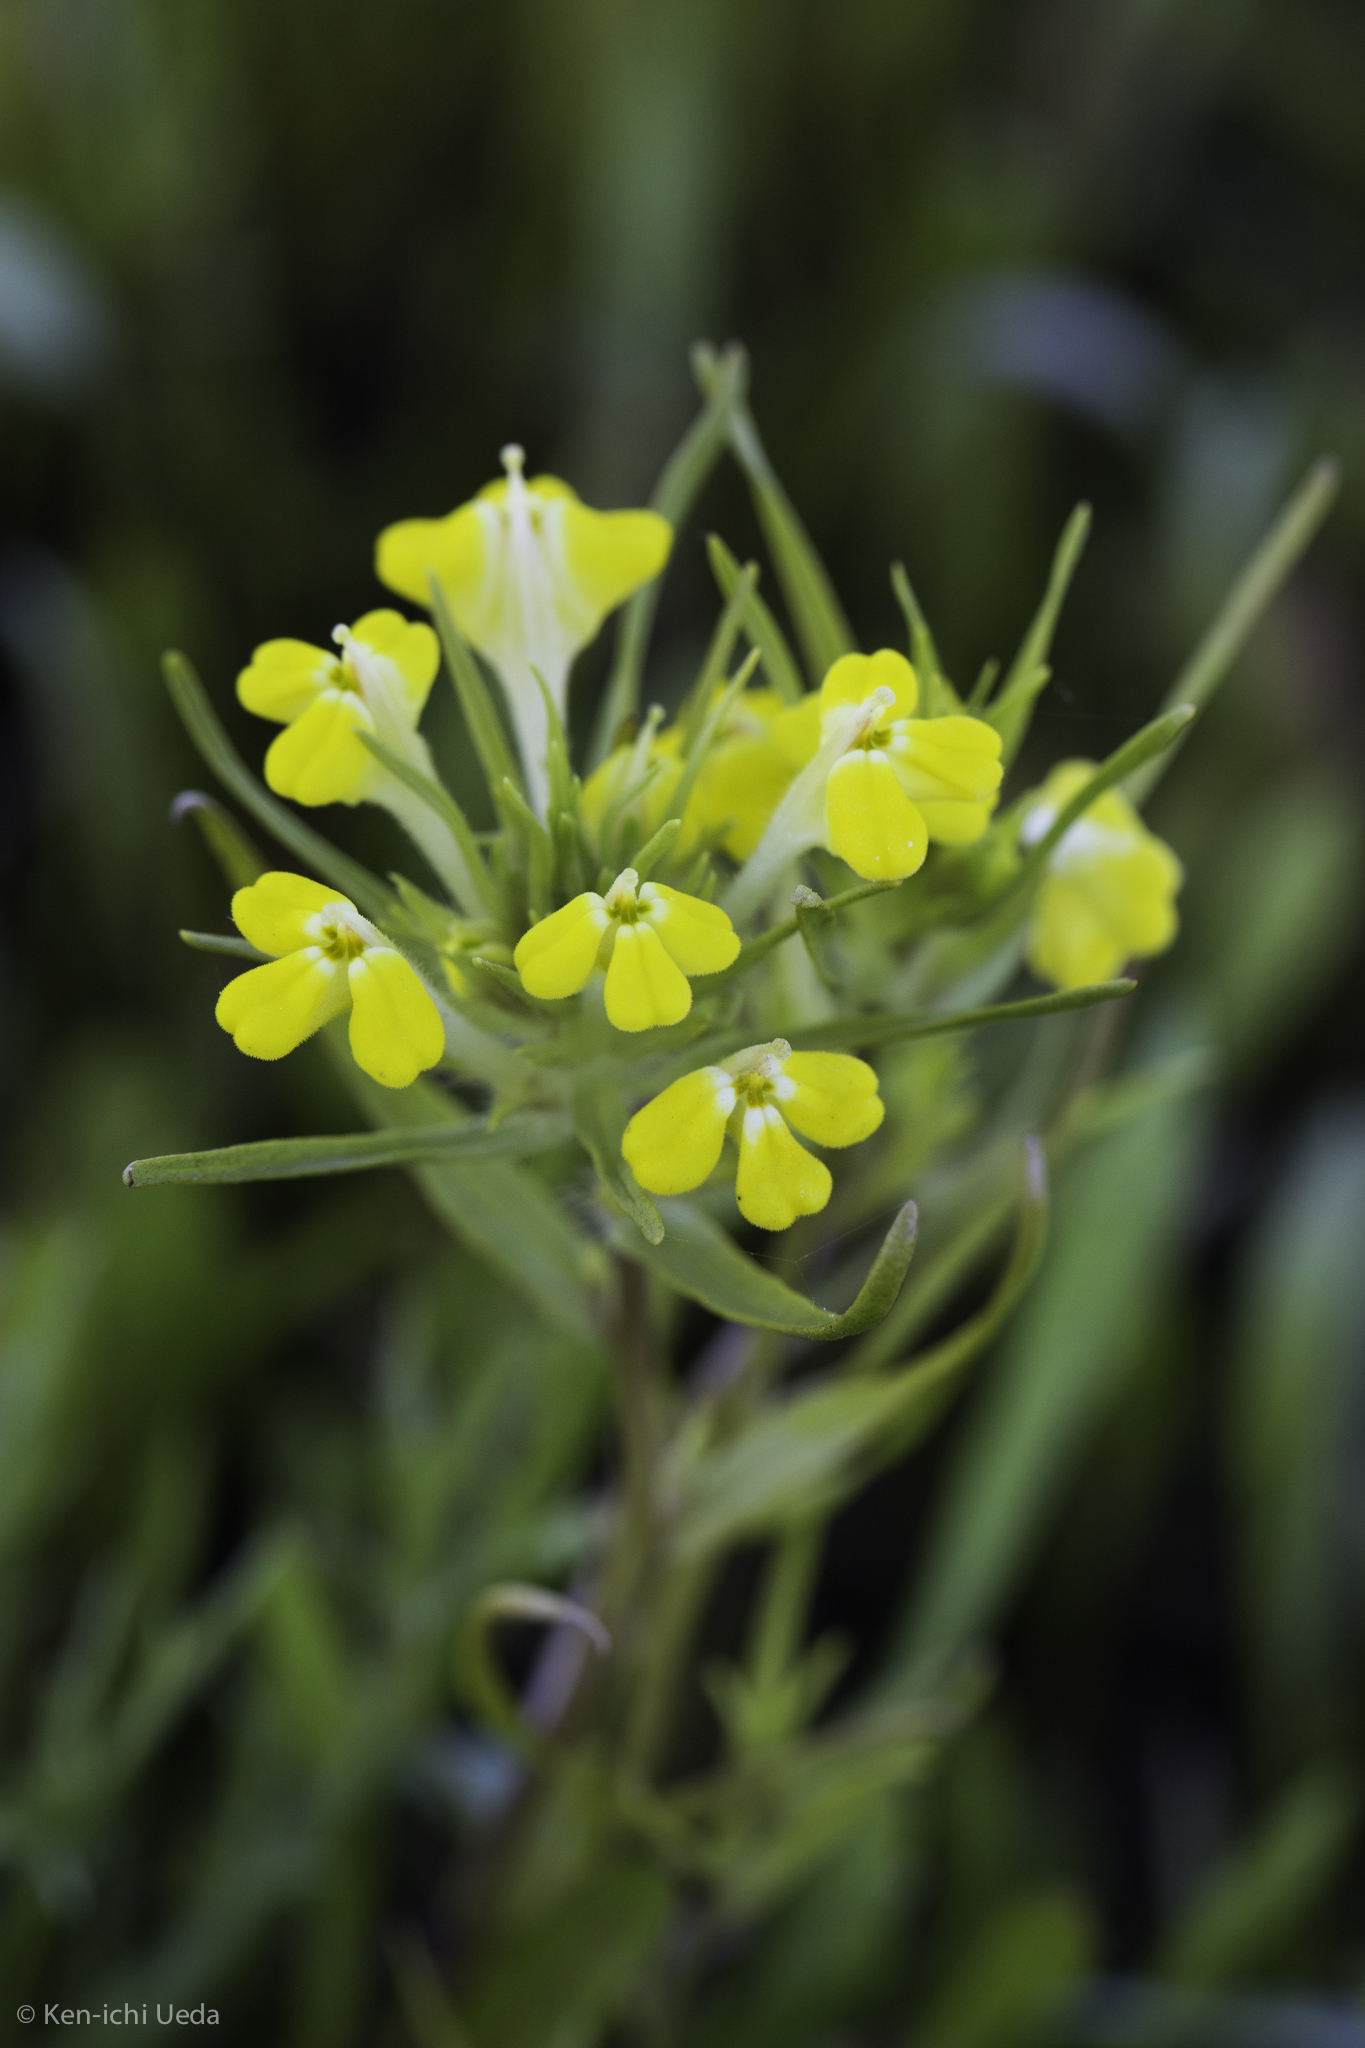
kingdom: Plantae
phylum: Tracheophyta
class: Magnoliopsida
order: Lamiales
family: Orobanchaceae
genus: Castilleja
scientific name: Castilleja campestris
